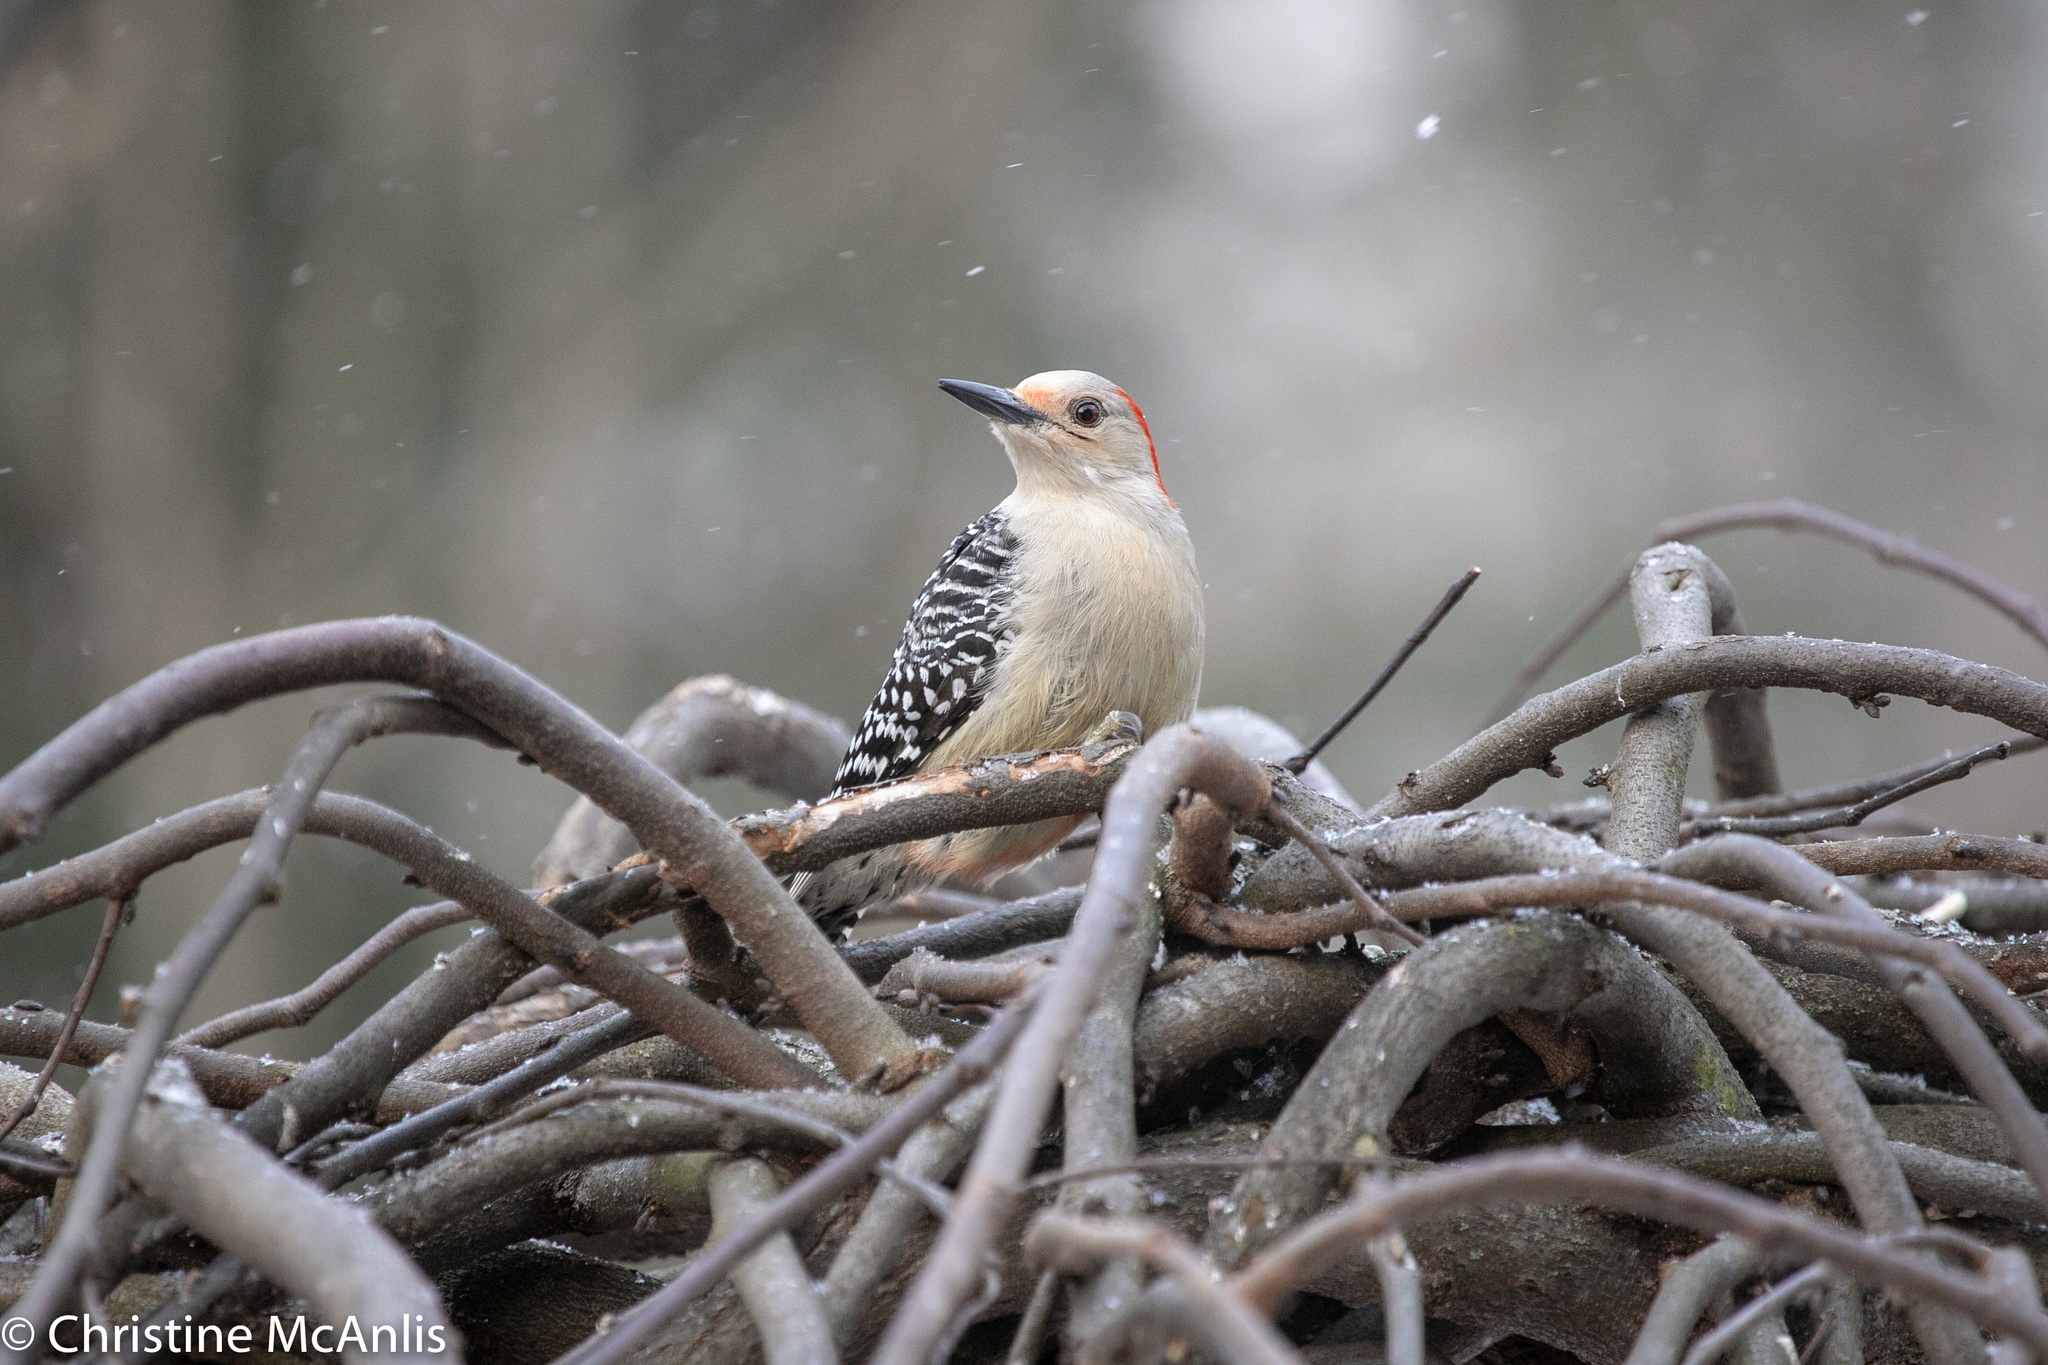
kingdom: Animalia
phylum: Chordata
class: Aves
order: Piciformes
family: Picidae
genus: Melanerpes
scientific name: Melanerpes carolinus
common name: Red-bellied woodpecker
